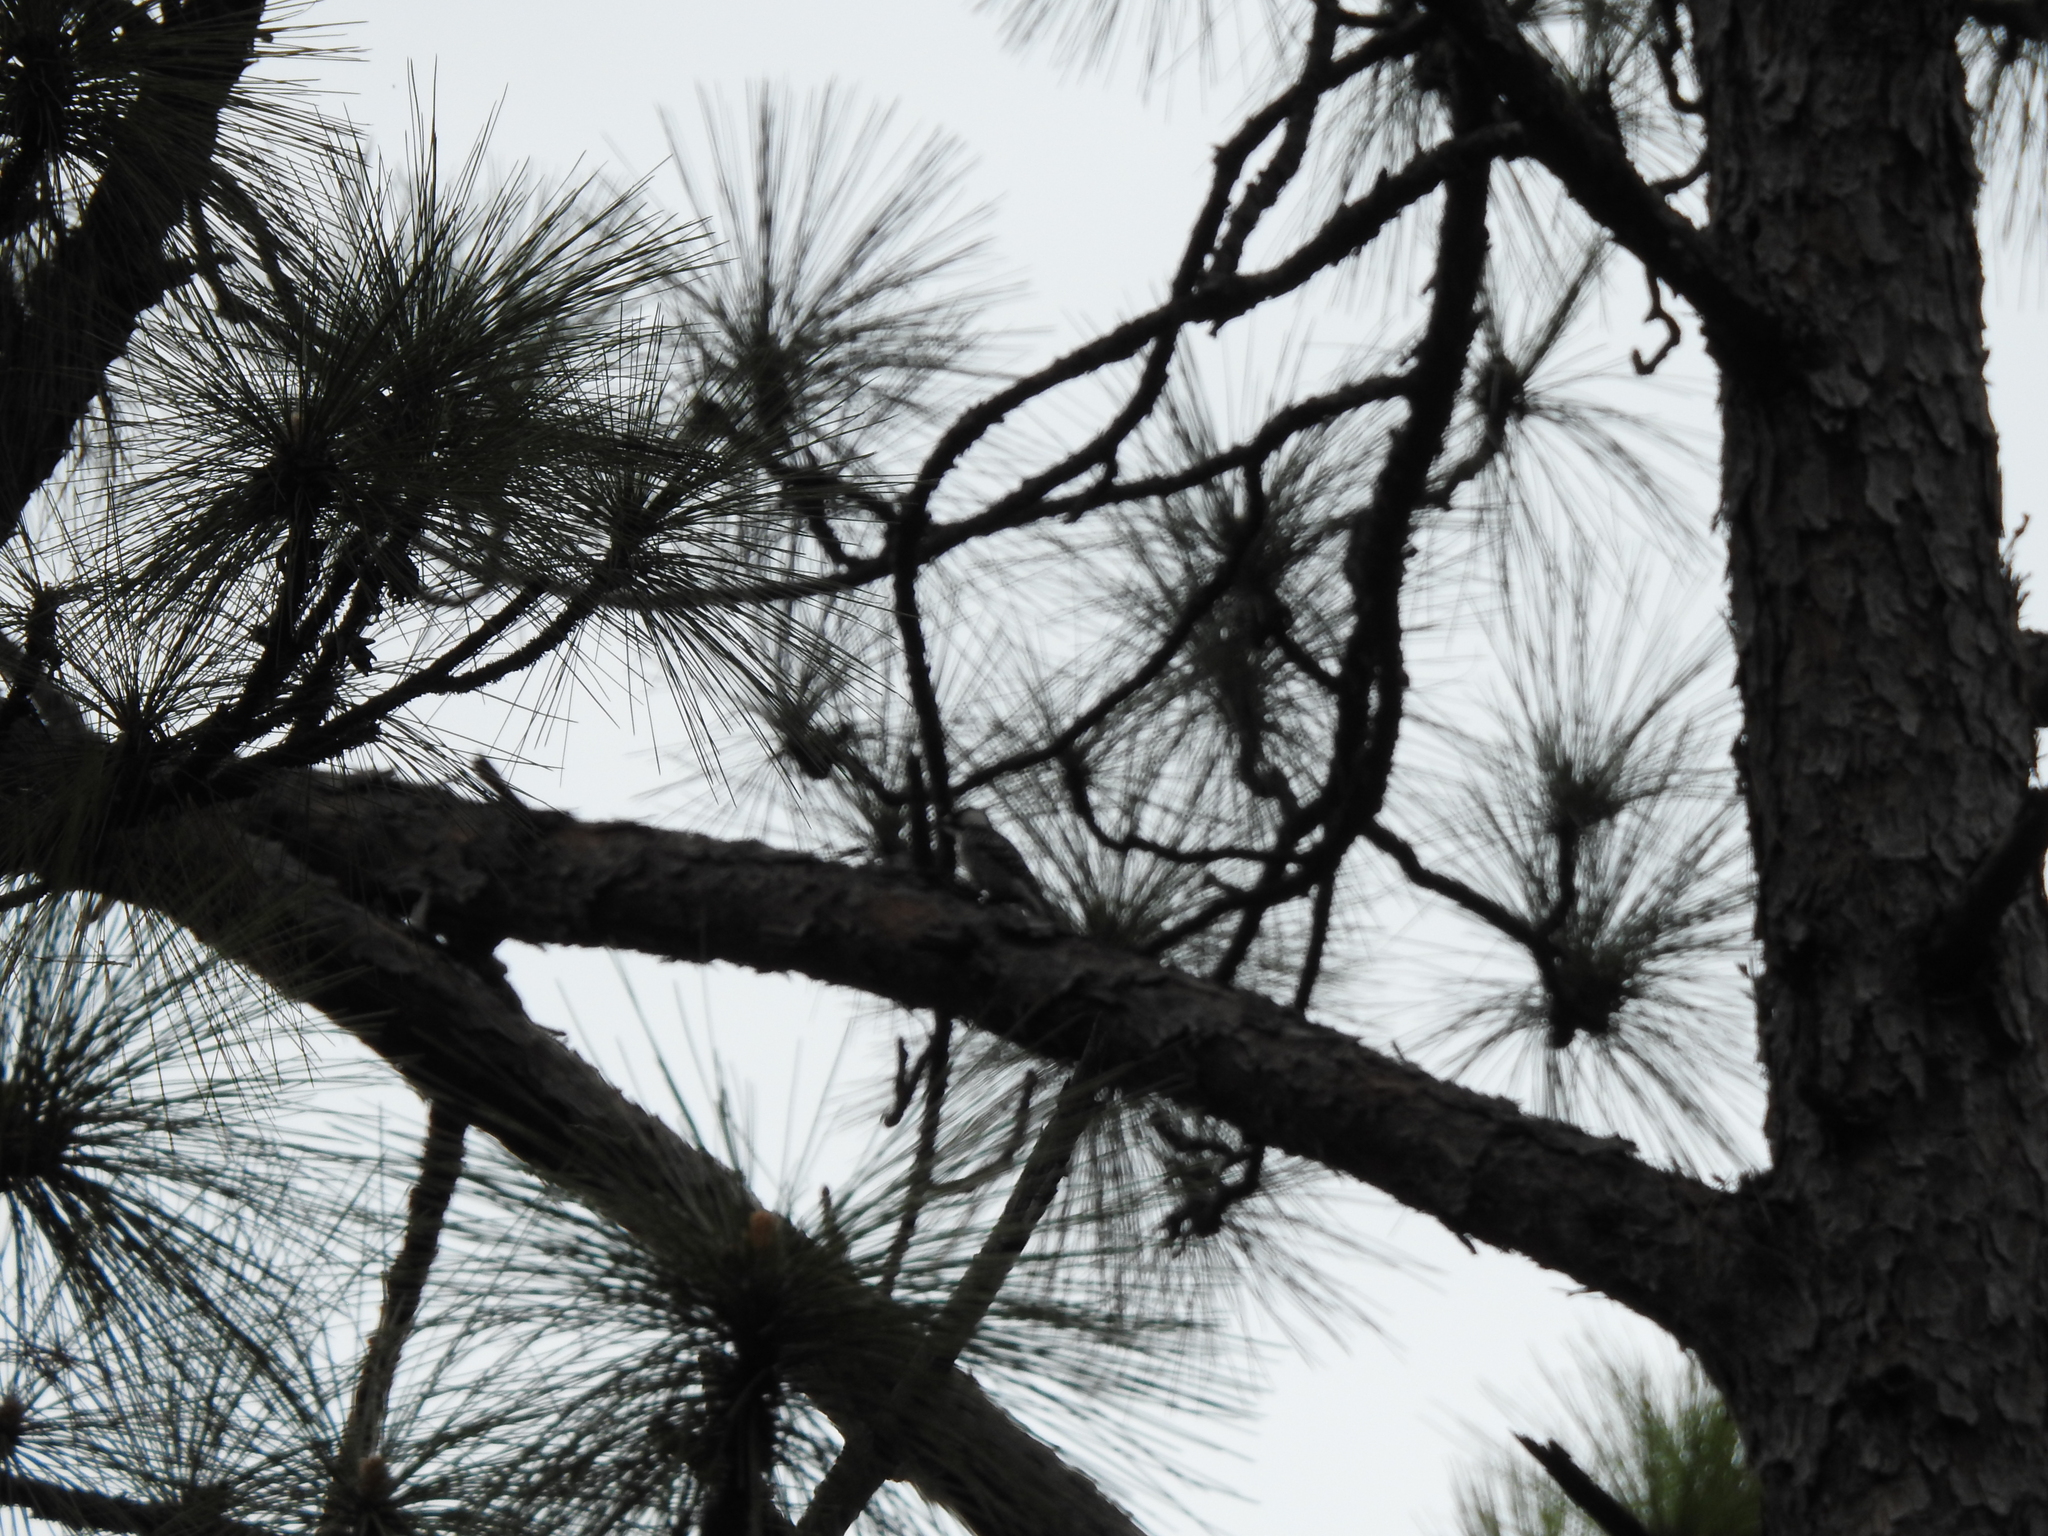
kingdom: Animalia
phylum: Chordata
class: Aves
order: Piciformes
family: Picidae
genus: Leuconotopicus
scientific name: Leuconotopicus borealis
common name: Red-cockaded woodpecker
